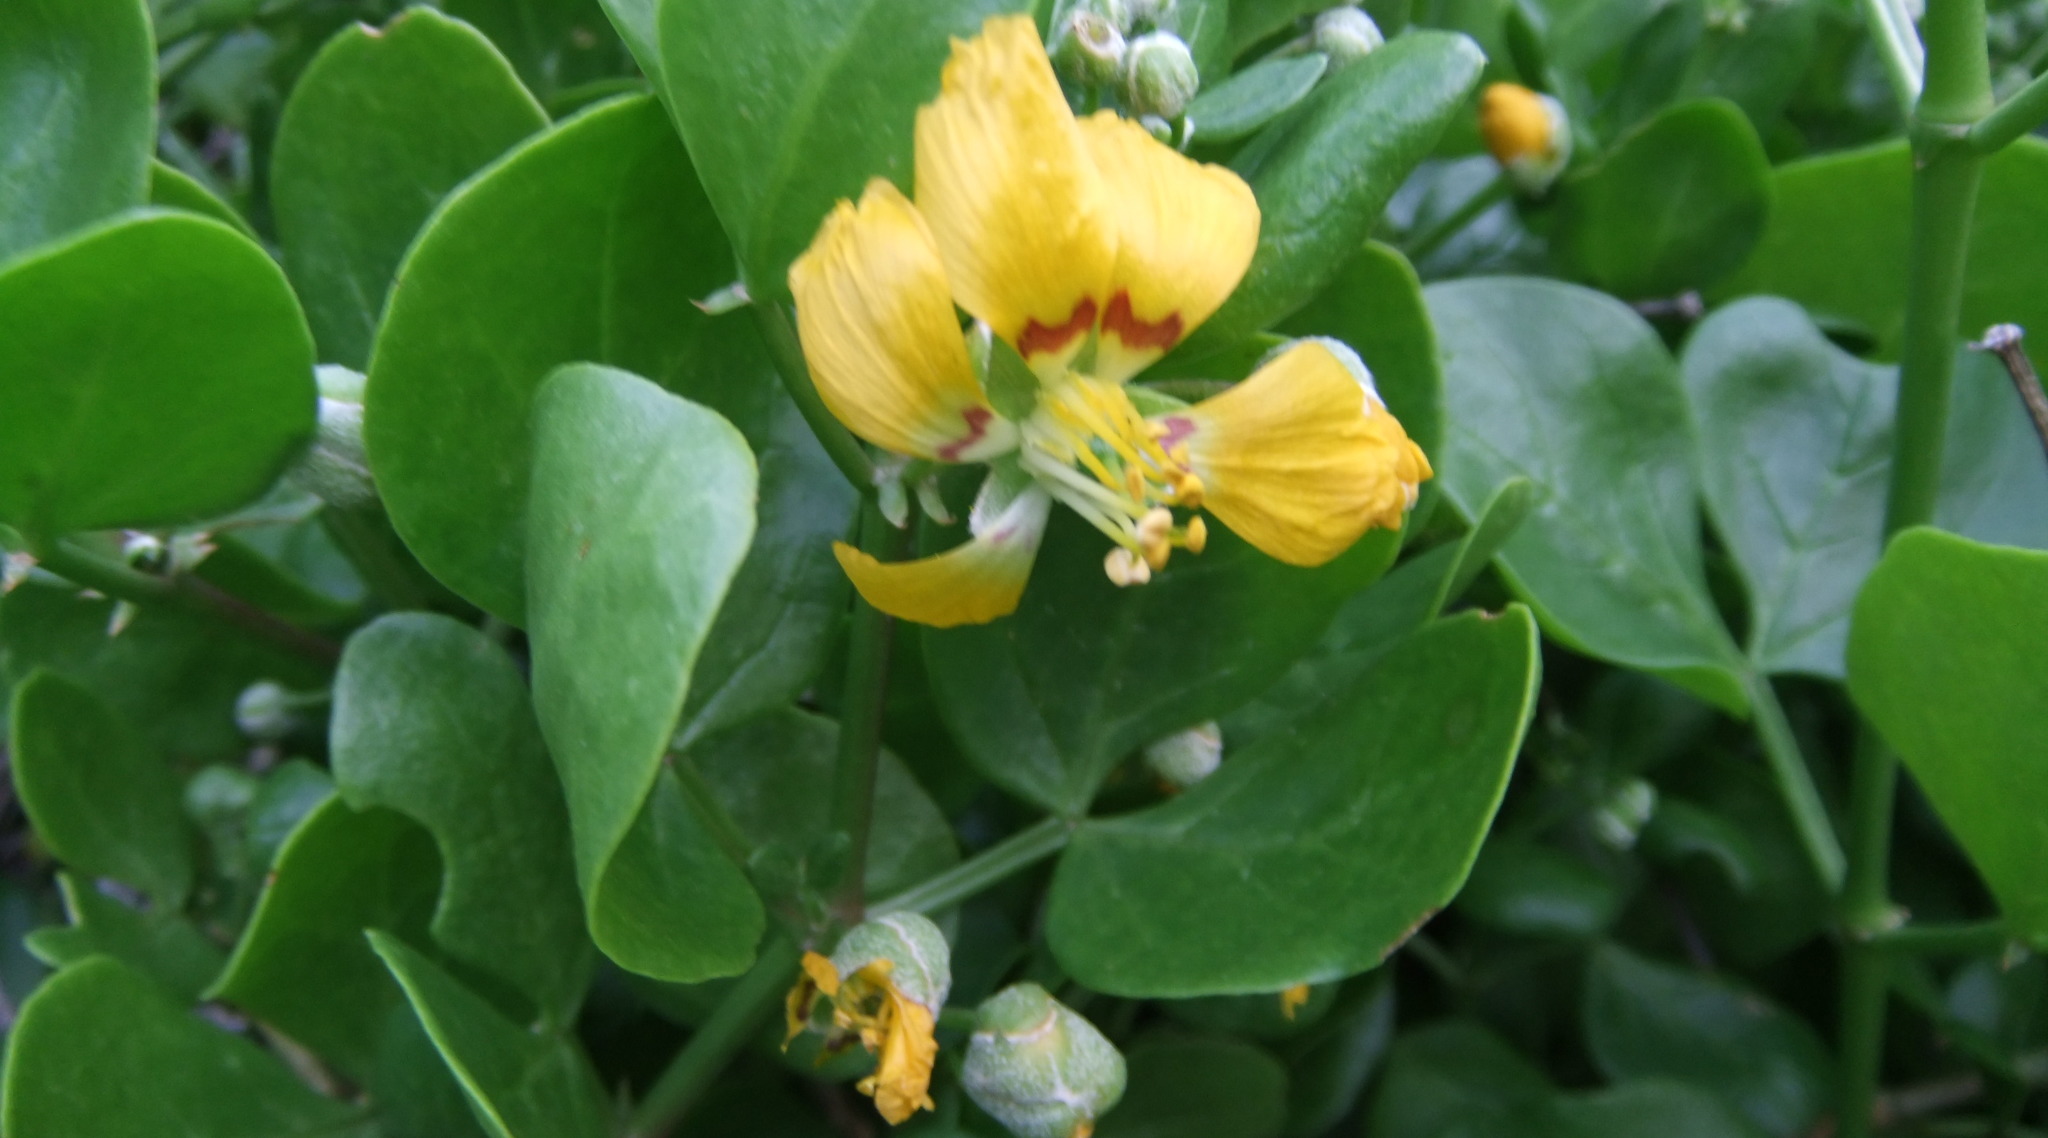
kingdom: Plantae
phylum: Tracheophyta
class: Magnoliopsida
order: Zygophyllales
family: Zygophyllaceae
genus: Roepera
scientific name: Roepera foetida
